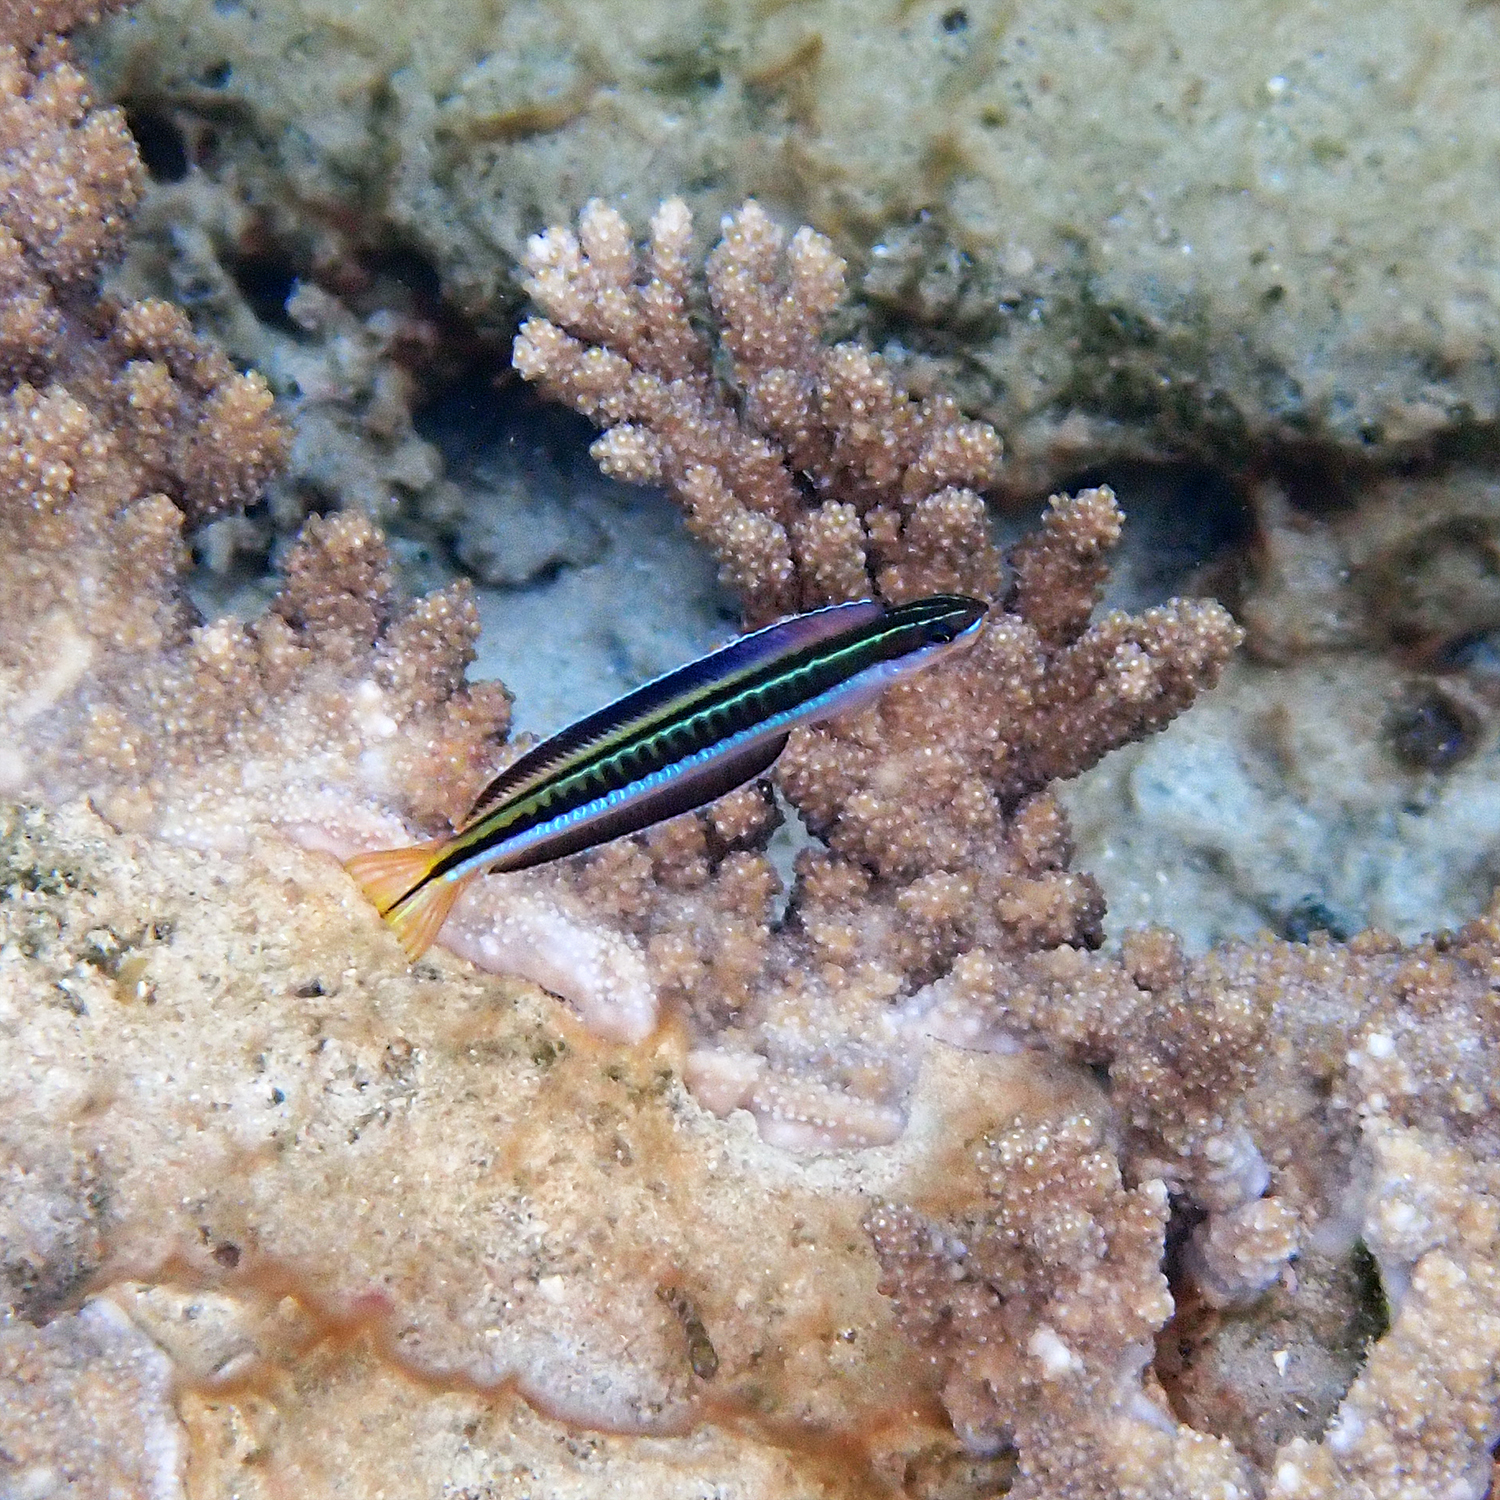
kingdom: Animalia
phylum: Chordata
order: Perciformes
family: Blenniidae
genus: Plagiotremus
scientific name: Plagiotremus tapeinosoma
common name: Hit and run blenny
